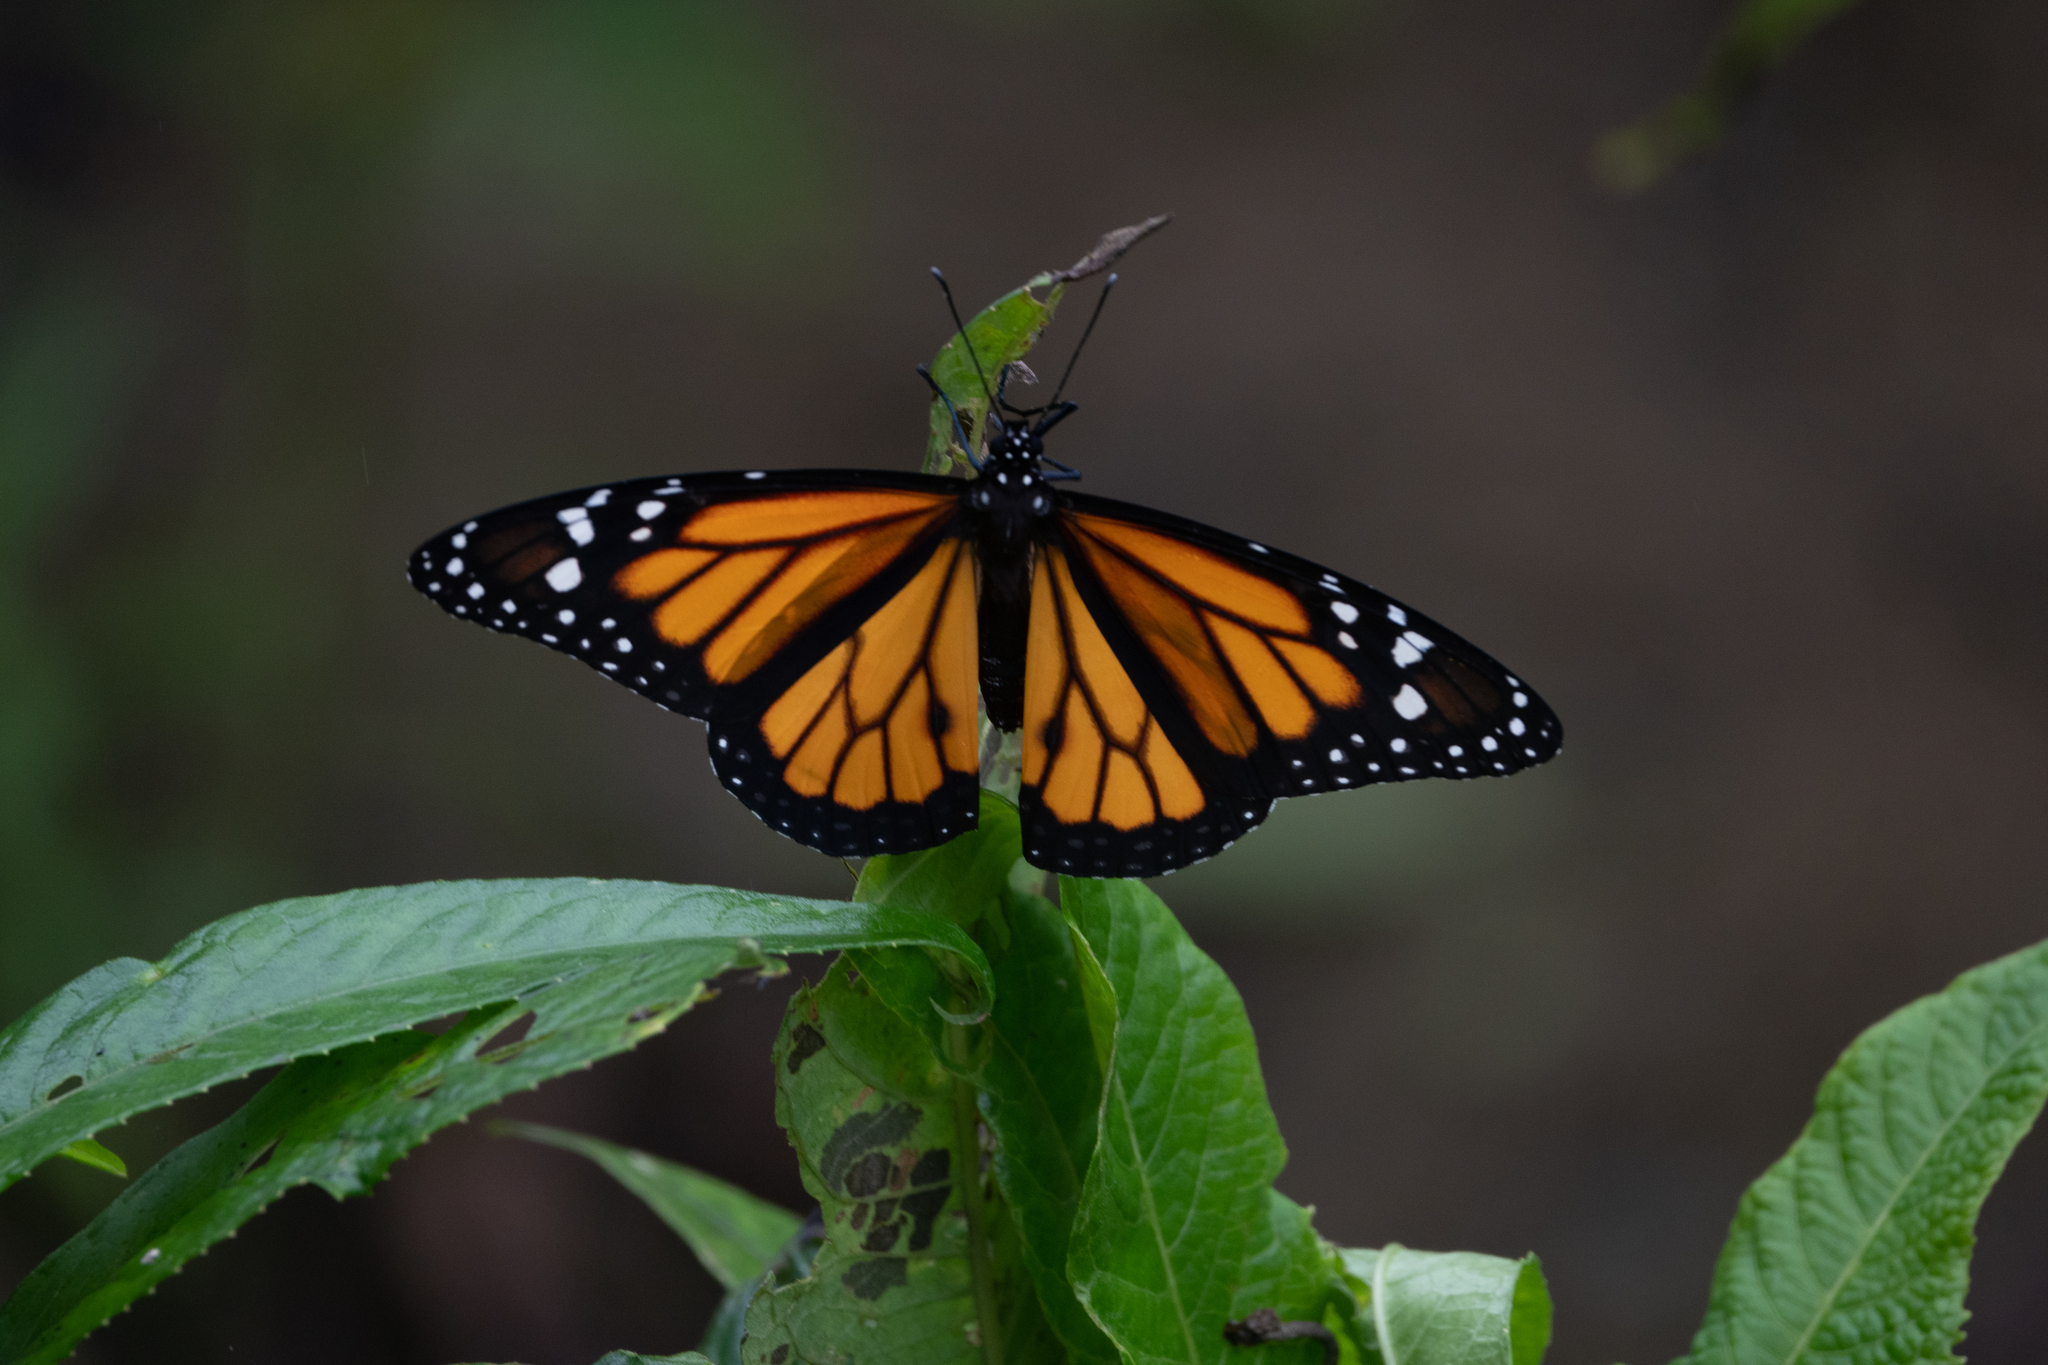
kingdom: Animalia
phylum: Arthropoda
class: Insecta
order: Lepidoptera
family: Nymphalidae
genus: Danaus
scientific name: Danaus plexippus
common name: Monarch
